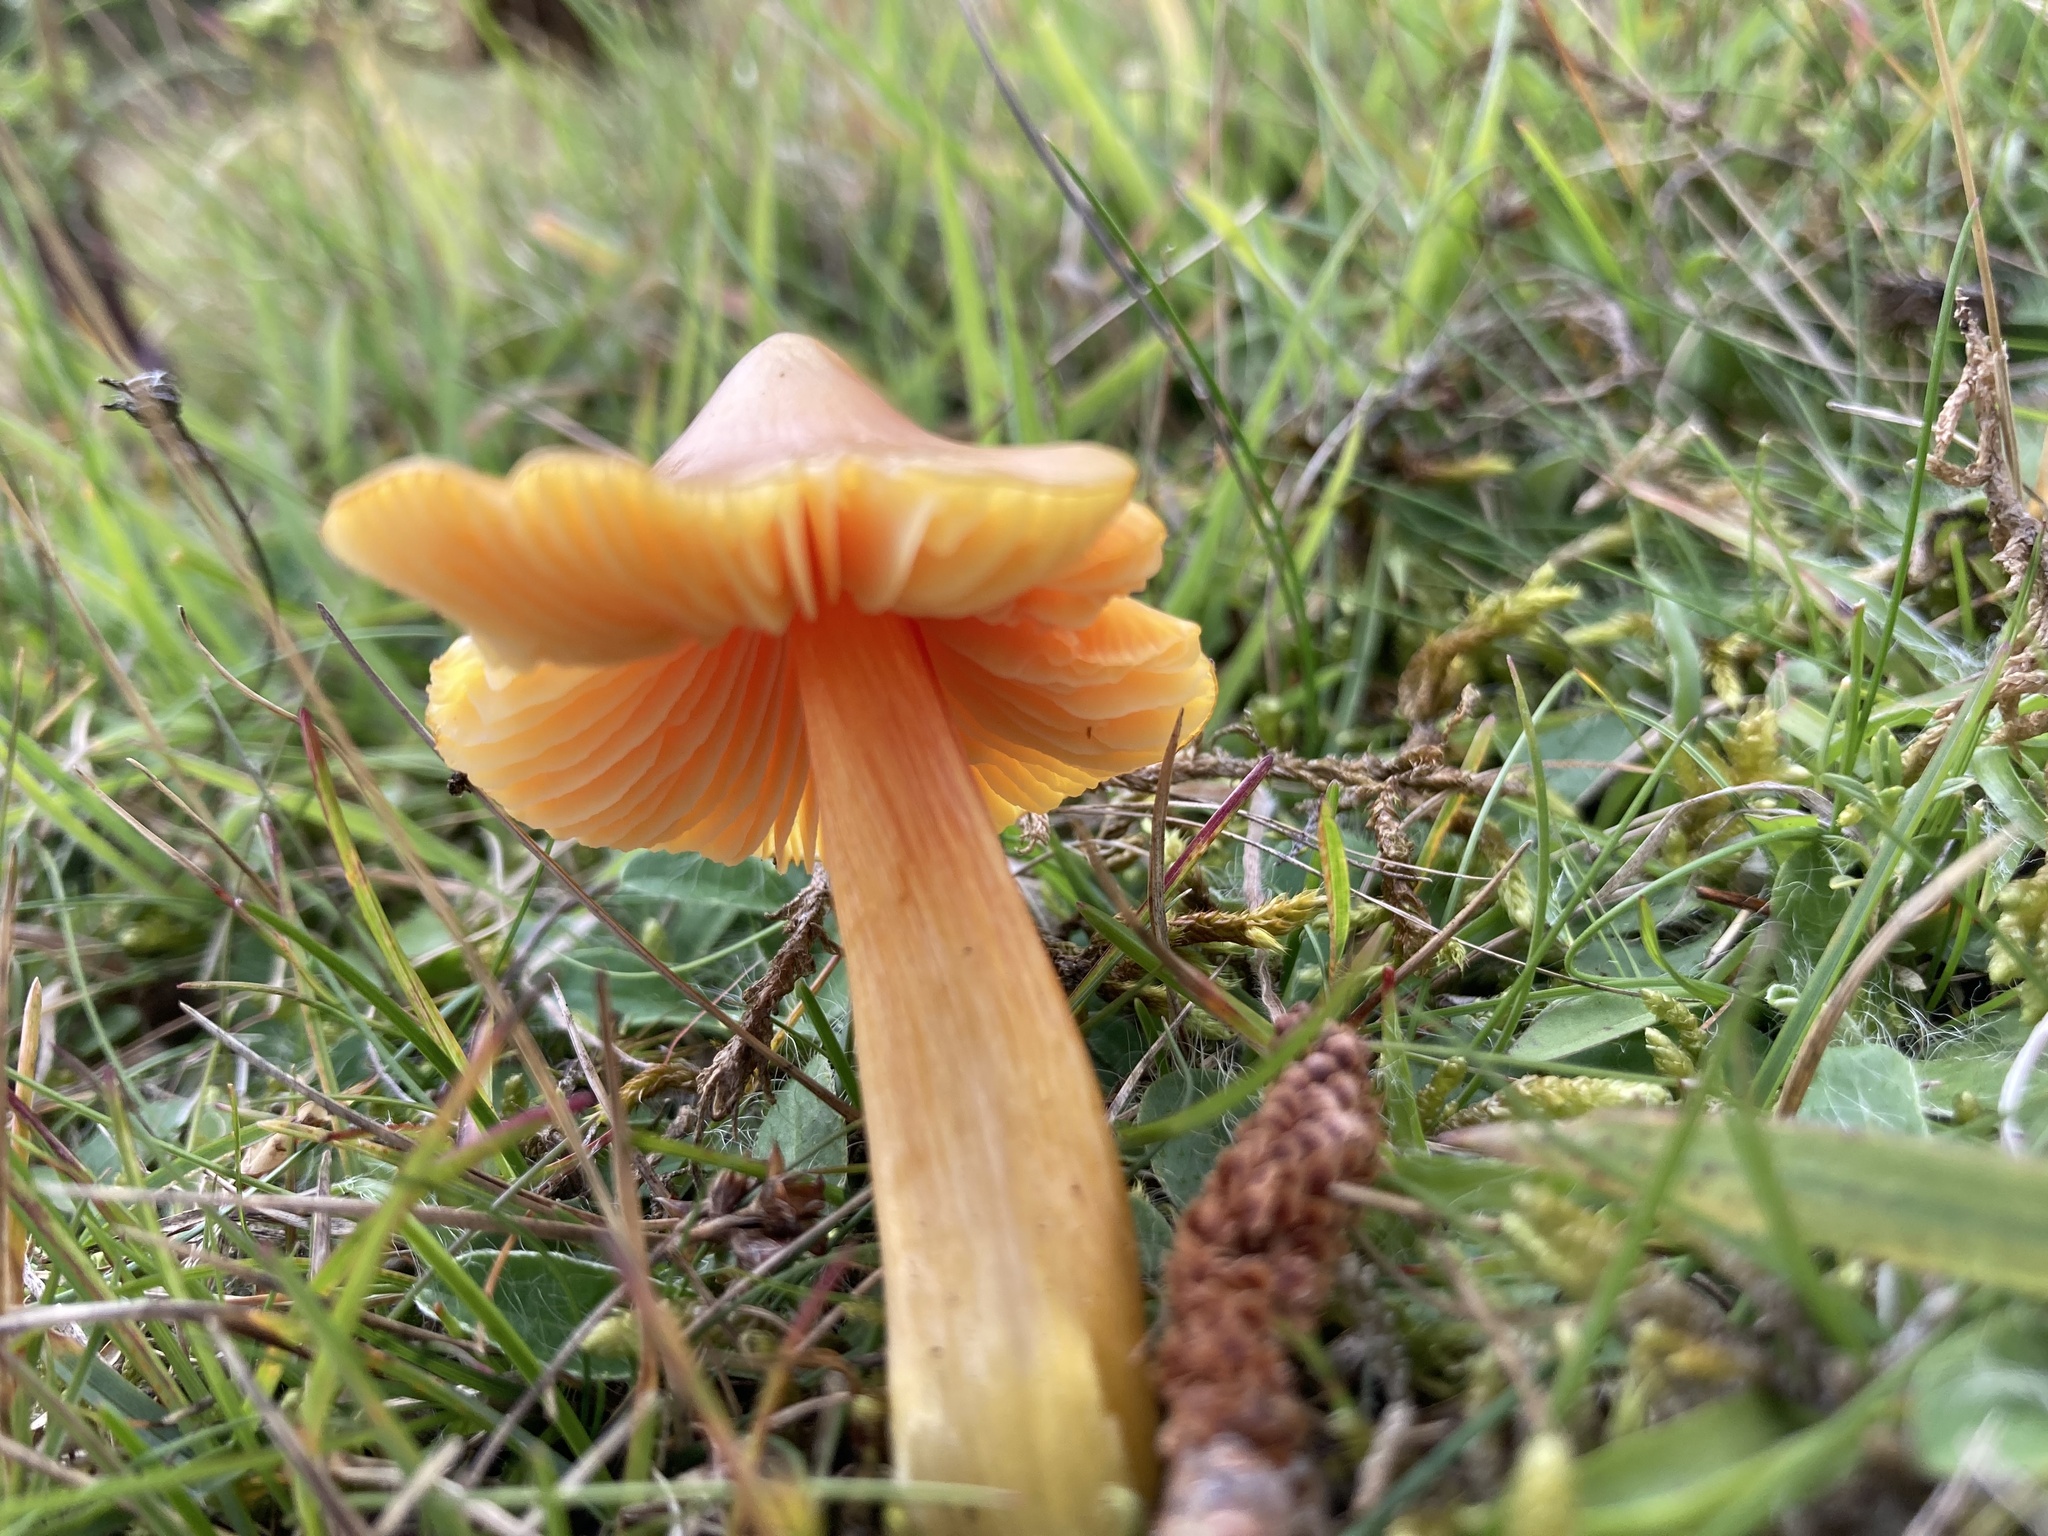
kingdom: Fungi
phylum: Basidiomycota
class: Agaricomycetes
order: Agaricales
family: Hygrophoraceae
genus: Hygrocybe
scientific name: Hygrocybe acutoconica
